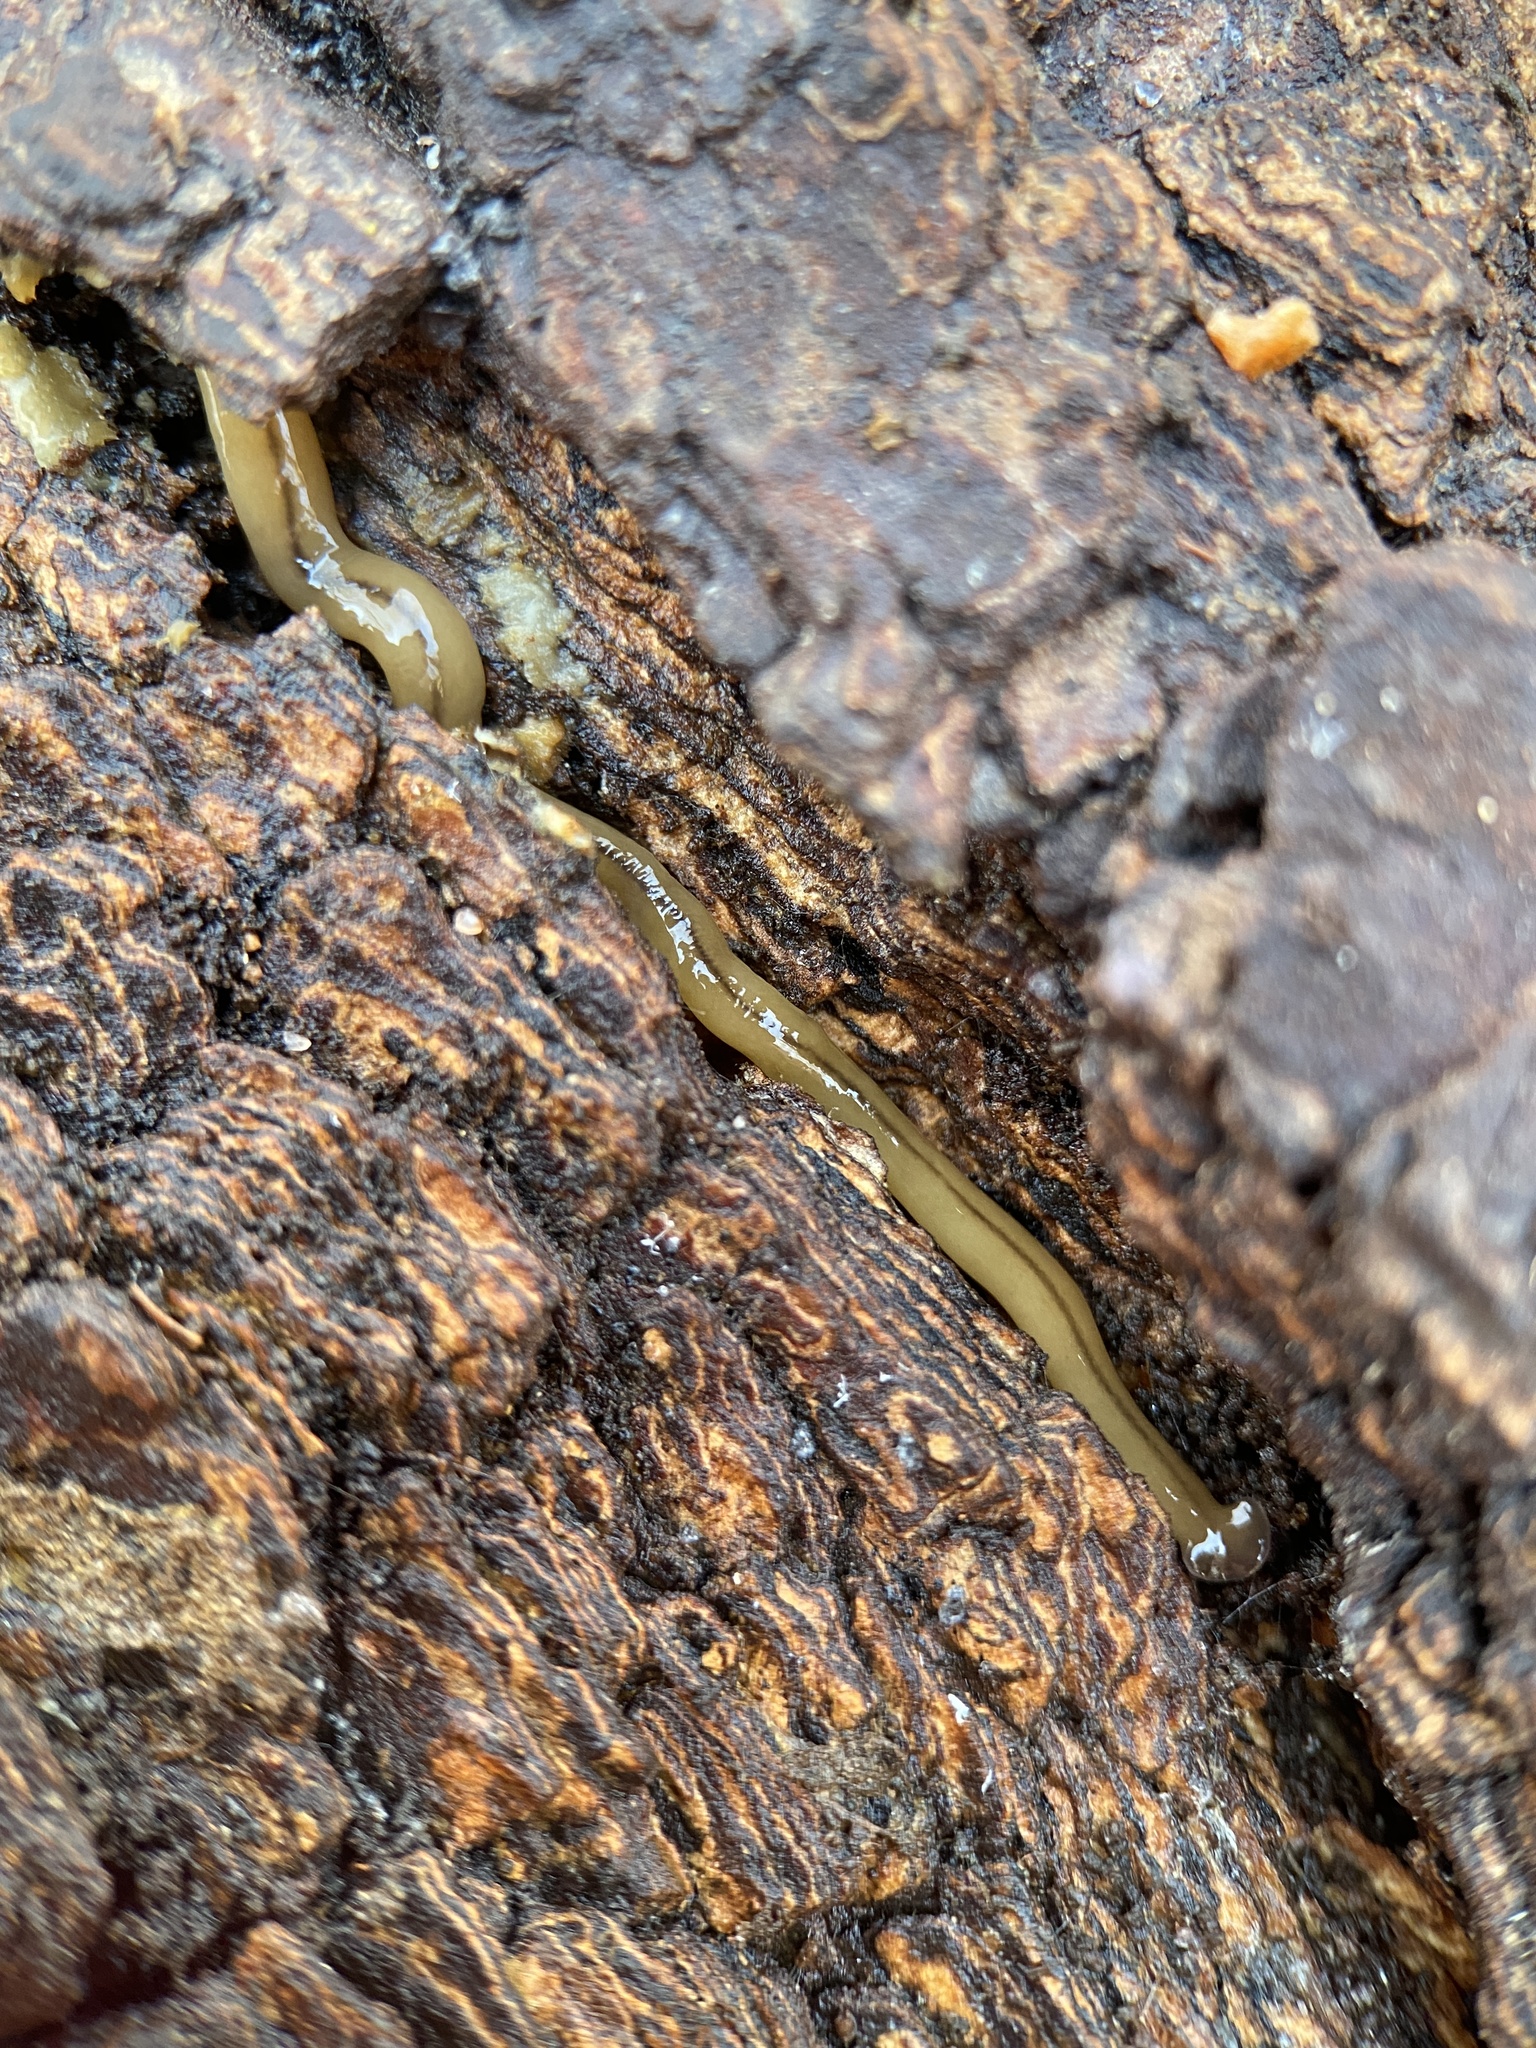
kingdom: Animalia
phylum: Platyhelminthes
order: Tricladida
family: Geoplanidae
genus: Bipalium
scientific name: Bipalium adventitium
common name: Land planarian
